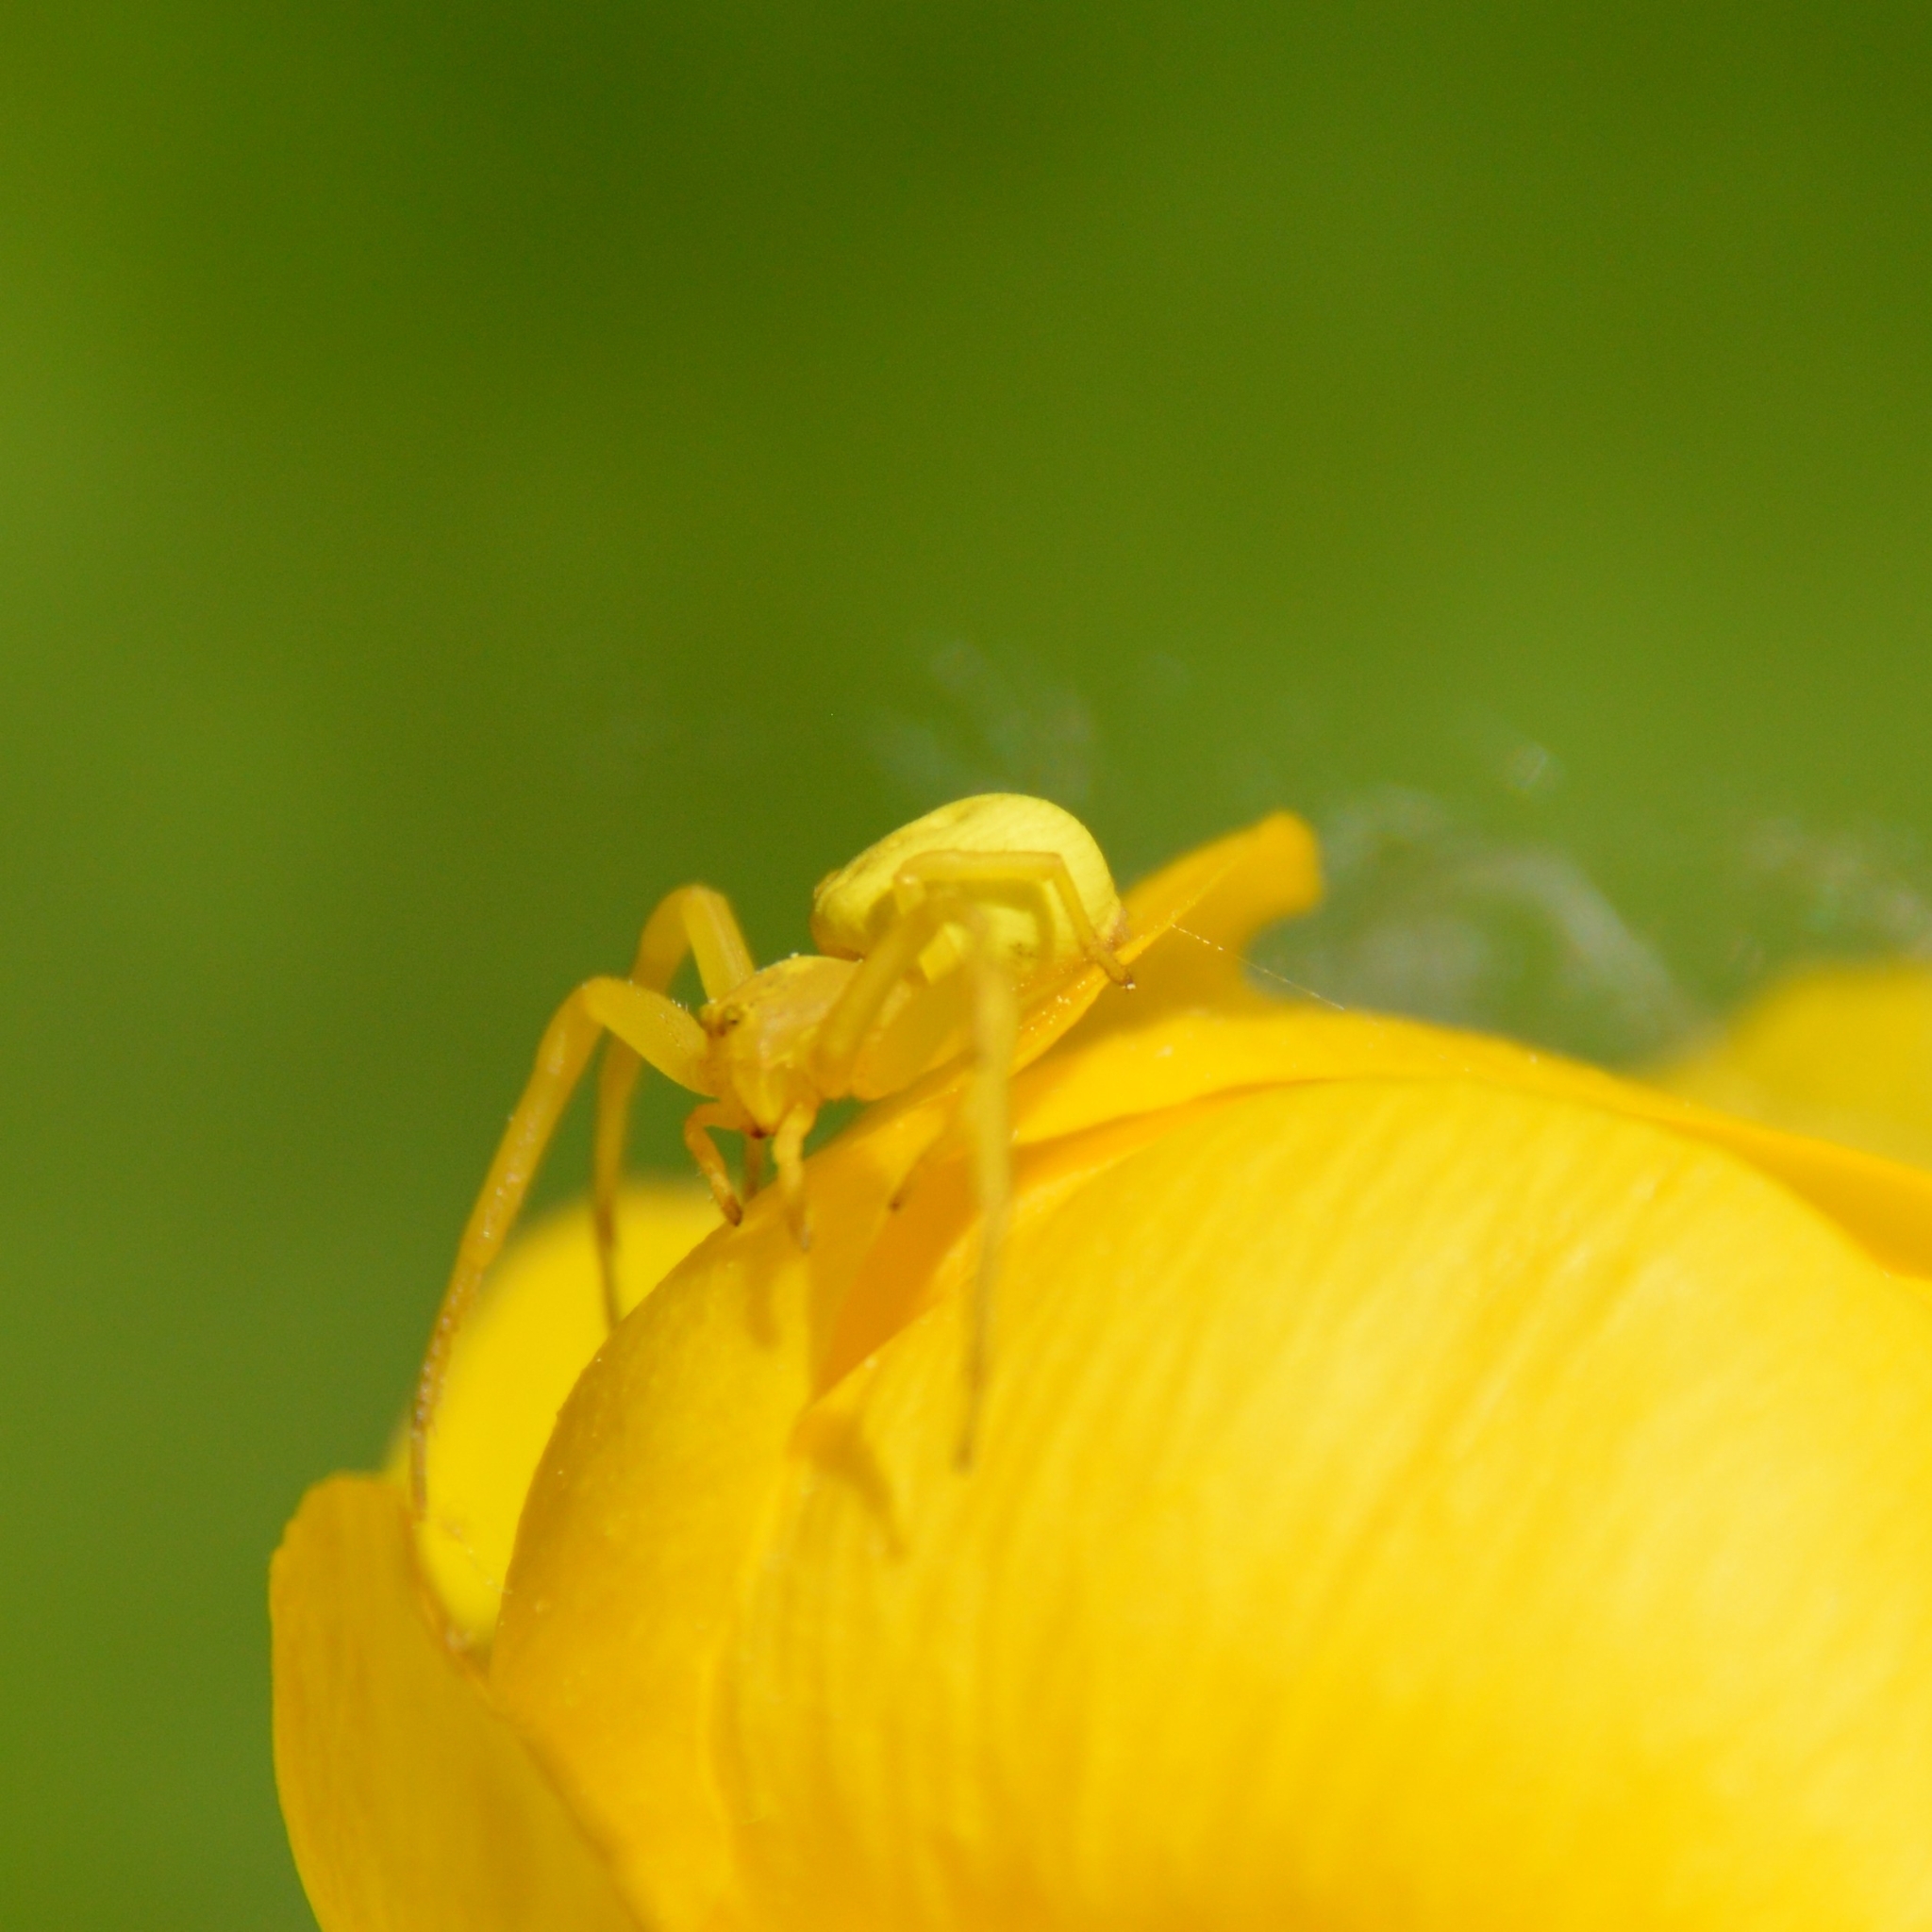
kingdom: Animalia
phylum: Arthropoda
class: Arachnida
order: Araneae
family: Thomisidae
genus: Misumena
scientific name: Misumena vatia
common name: Goldenrod crab spider
